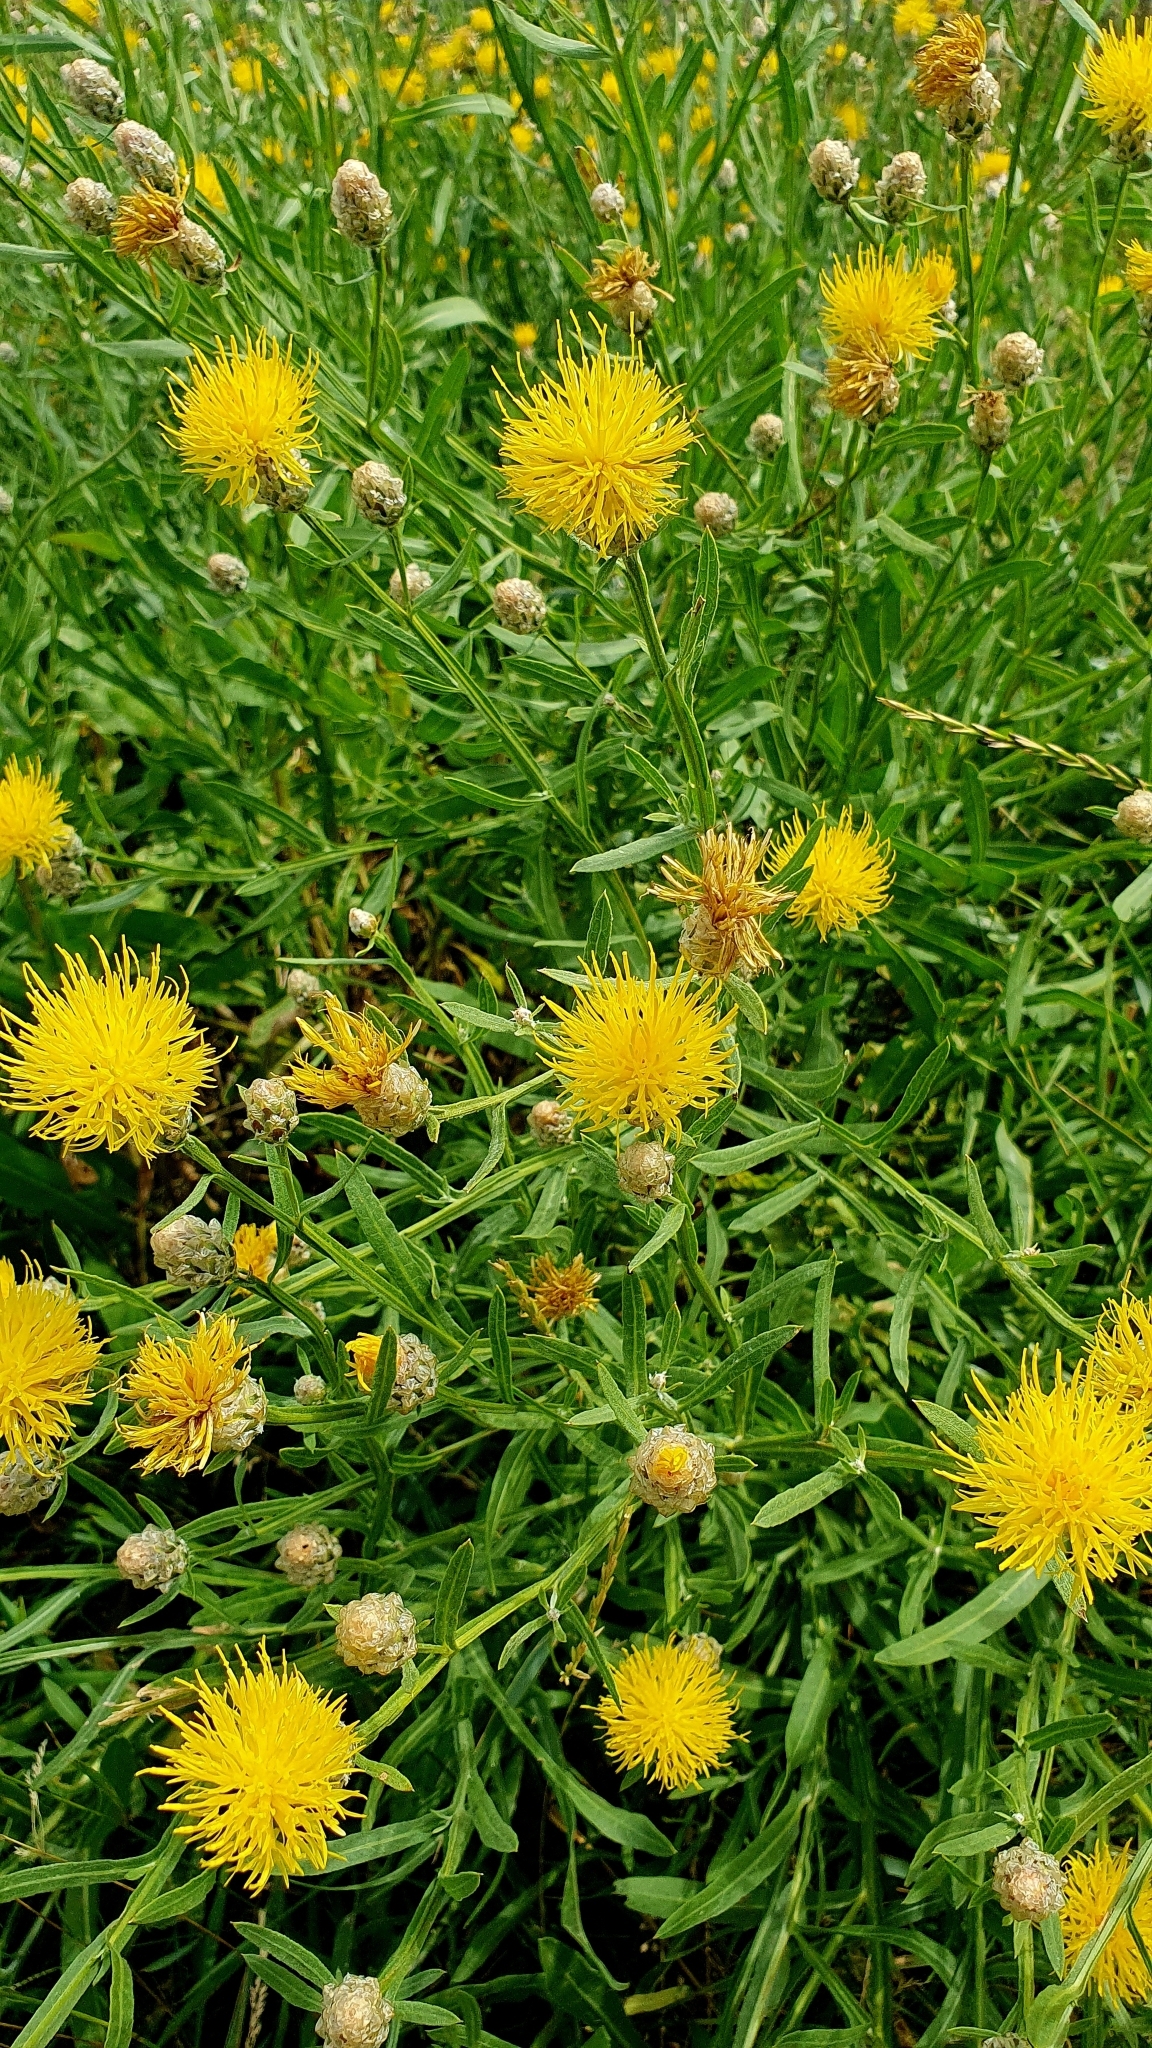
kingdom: Plantae
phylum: Tracheophyta
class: Magnoliopsida
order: Asterales
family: Asteraceae
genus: Centaurea
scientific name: Centaurea glastifolia
